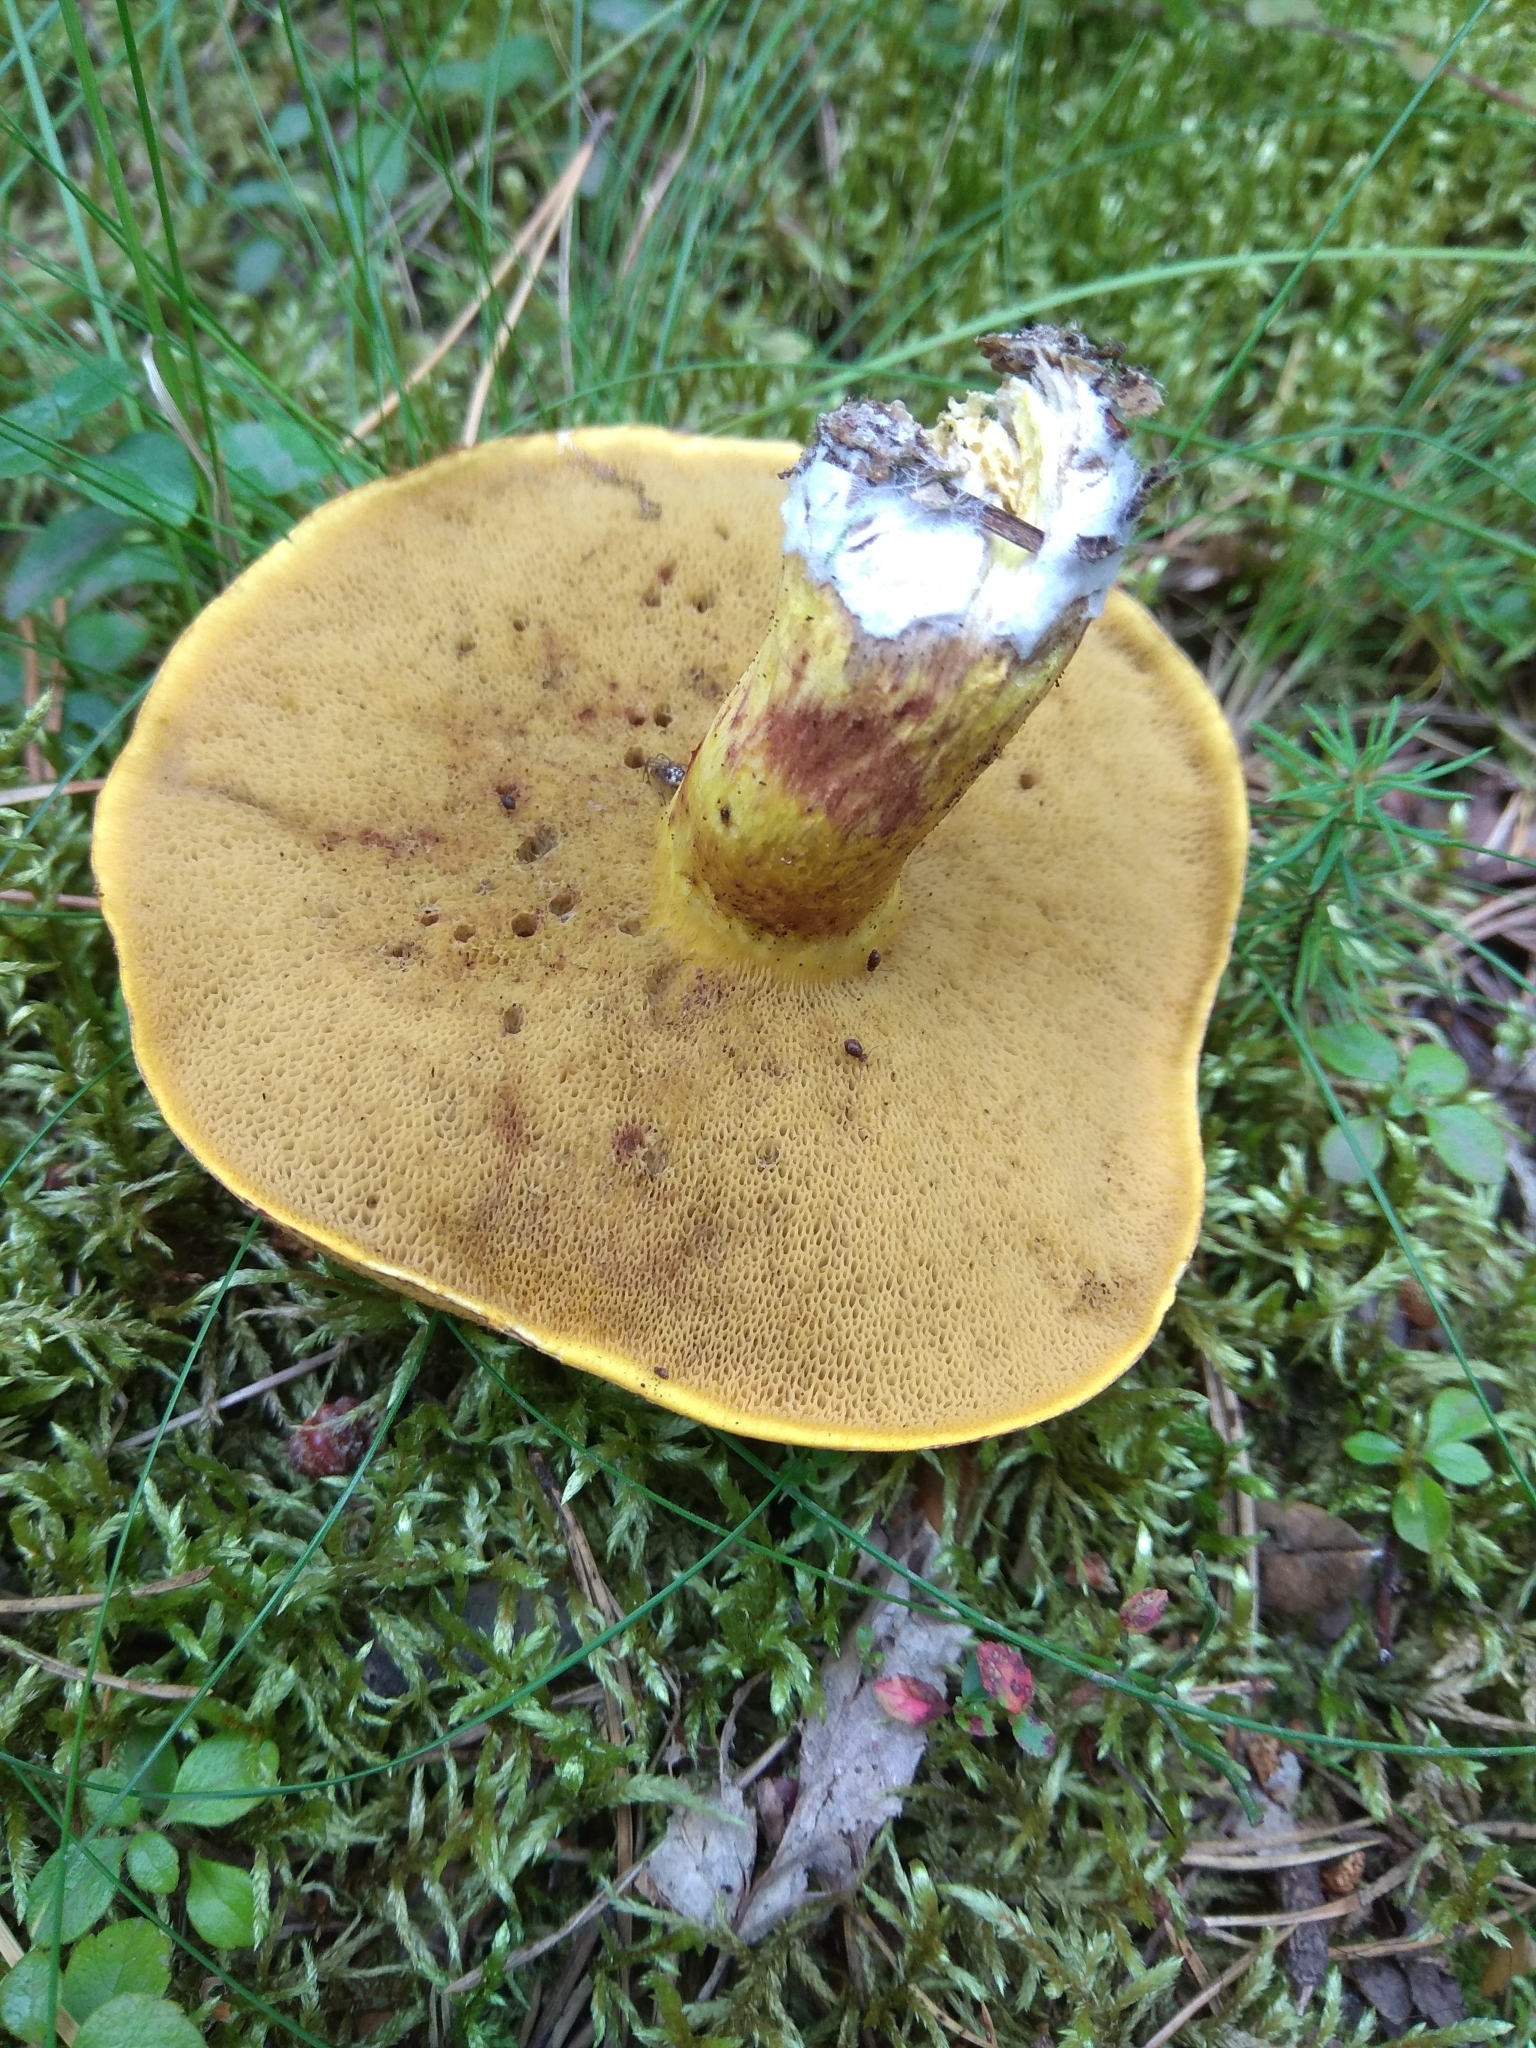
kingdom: Fungi
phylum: Basidiomycota
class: Agaricomycetes
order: Boletales
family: Suillaceae
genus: Suillus
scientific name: Suillus variegatus
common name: Velvet bolete
